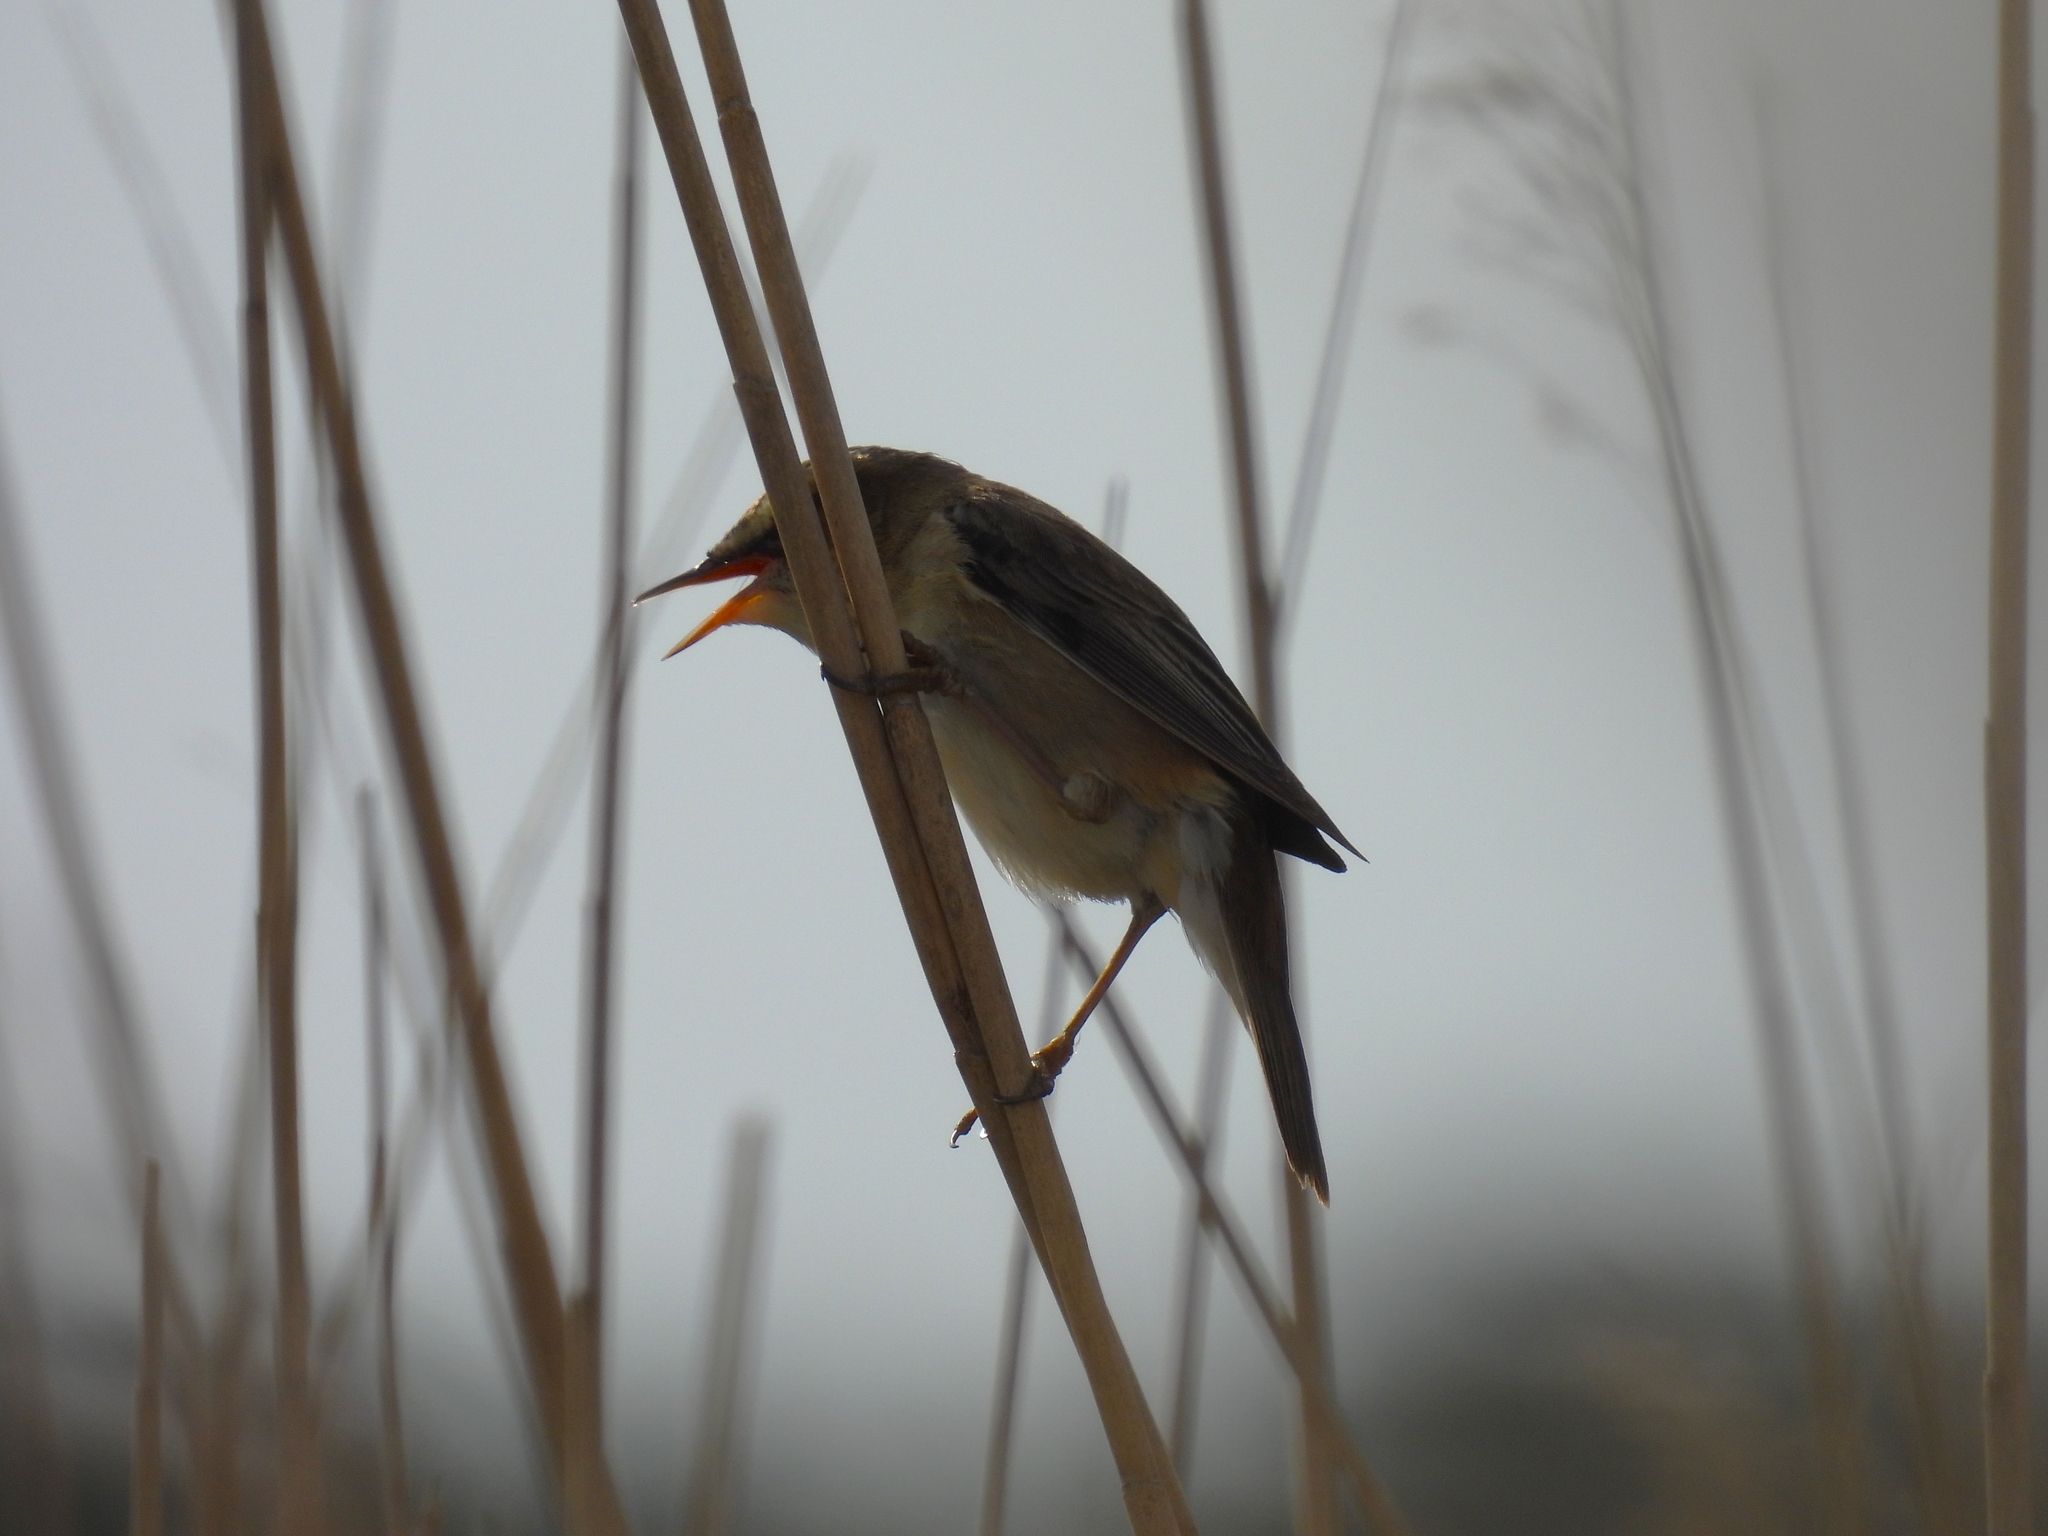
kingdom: Animalia
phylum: Chordata
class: Aves
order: Passeriformes
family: Acrocephalidae
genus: Acrocephalus
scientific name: Acrocephalus schoenobaenus
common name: Sedge warbler
